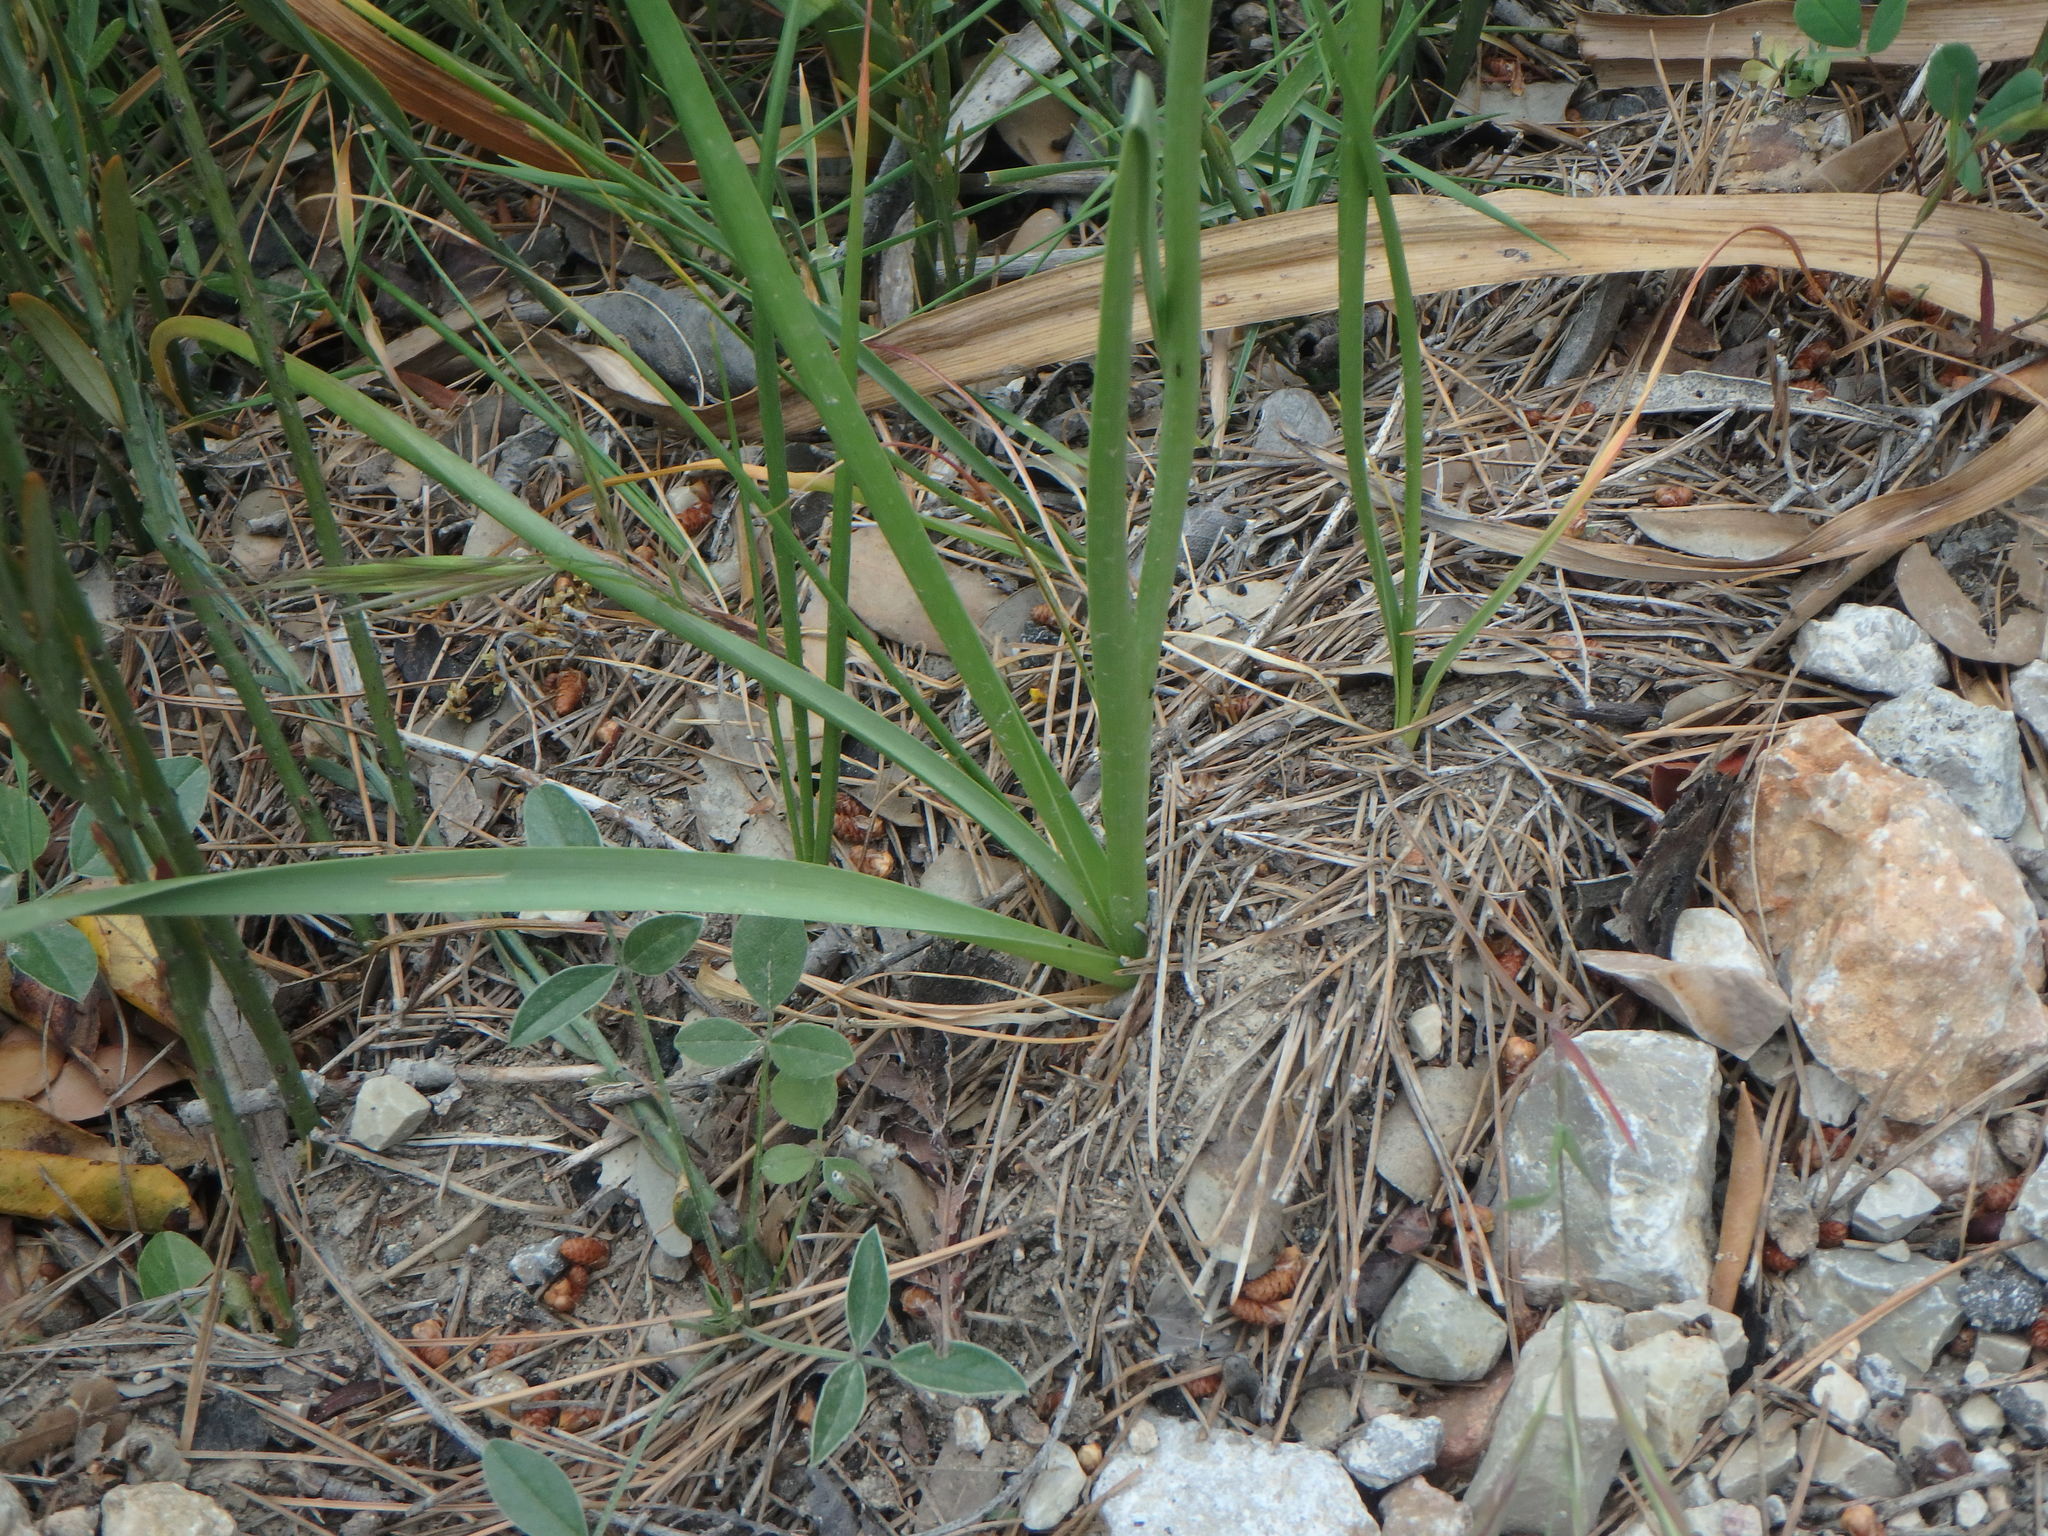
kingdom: Plantae
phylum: Tracheophyta
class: Liliopsida
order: Asparagales
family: Amaryllidaceae
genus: Allium
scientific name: Allium roseum
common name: Rosy garlic
